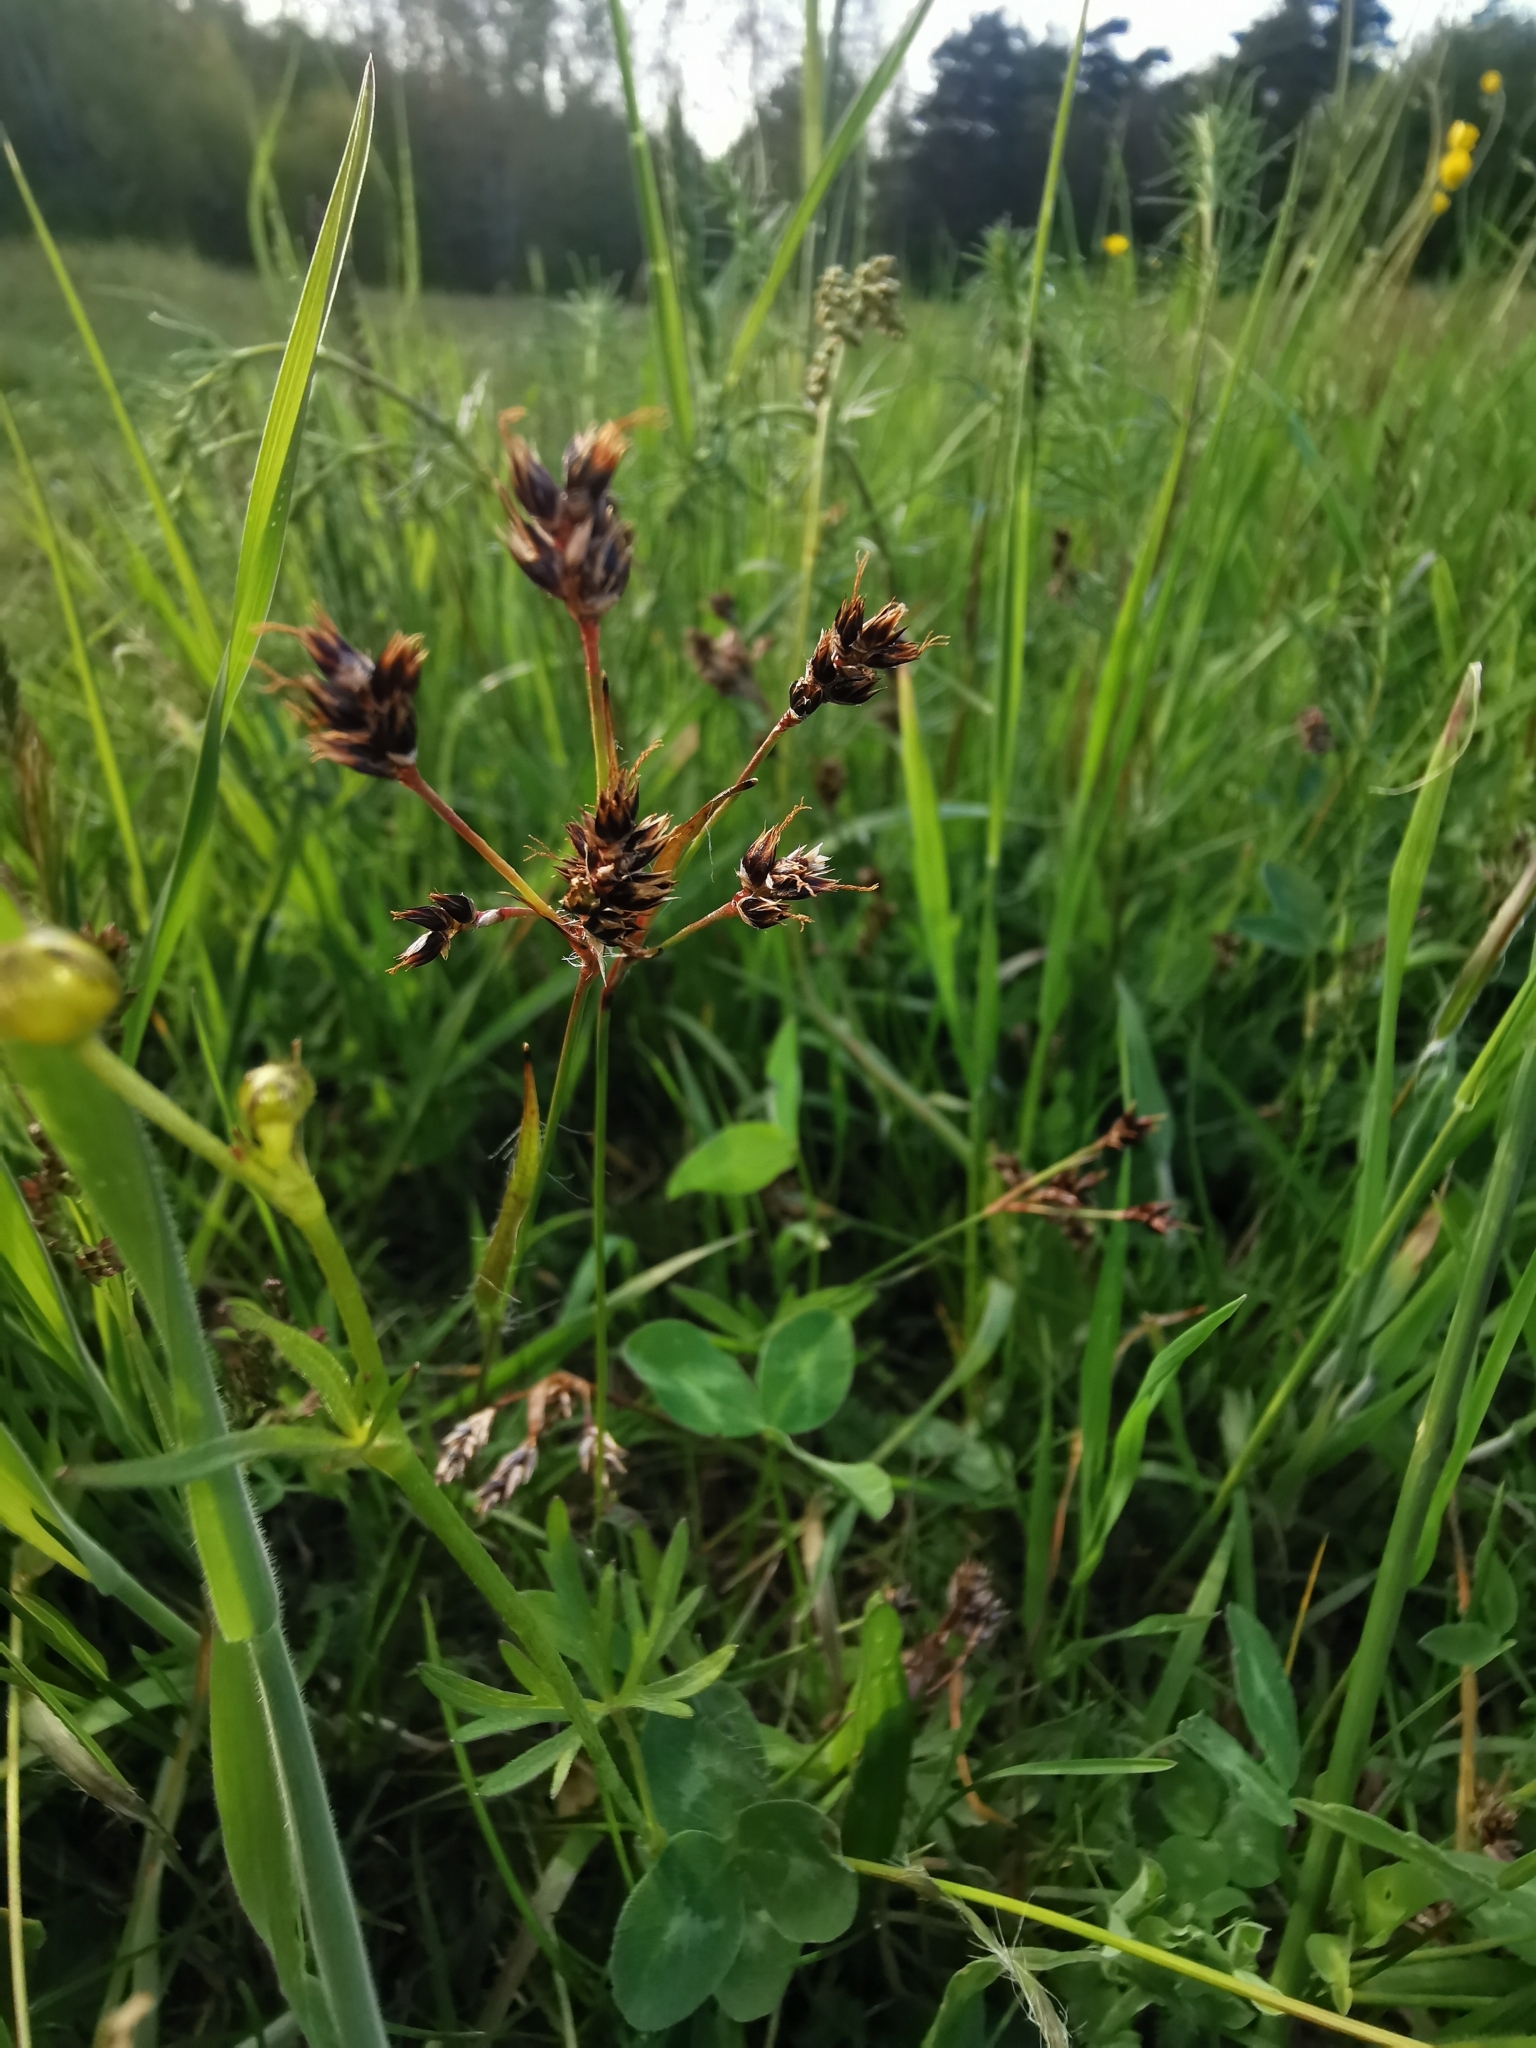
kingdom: Plantae
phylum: Tracheophyta
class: Liliopsida
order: Poales
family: Juncaceae
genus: Luzula
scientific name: Luzula campestris
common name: Field wood-rush
